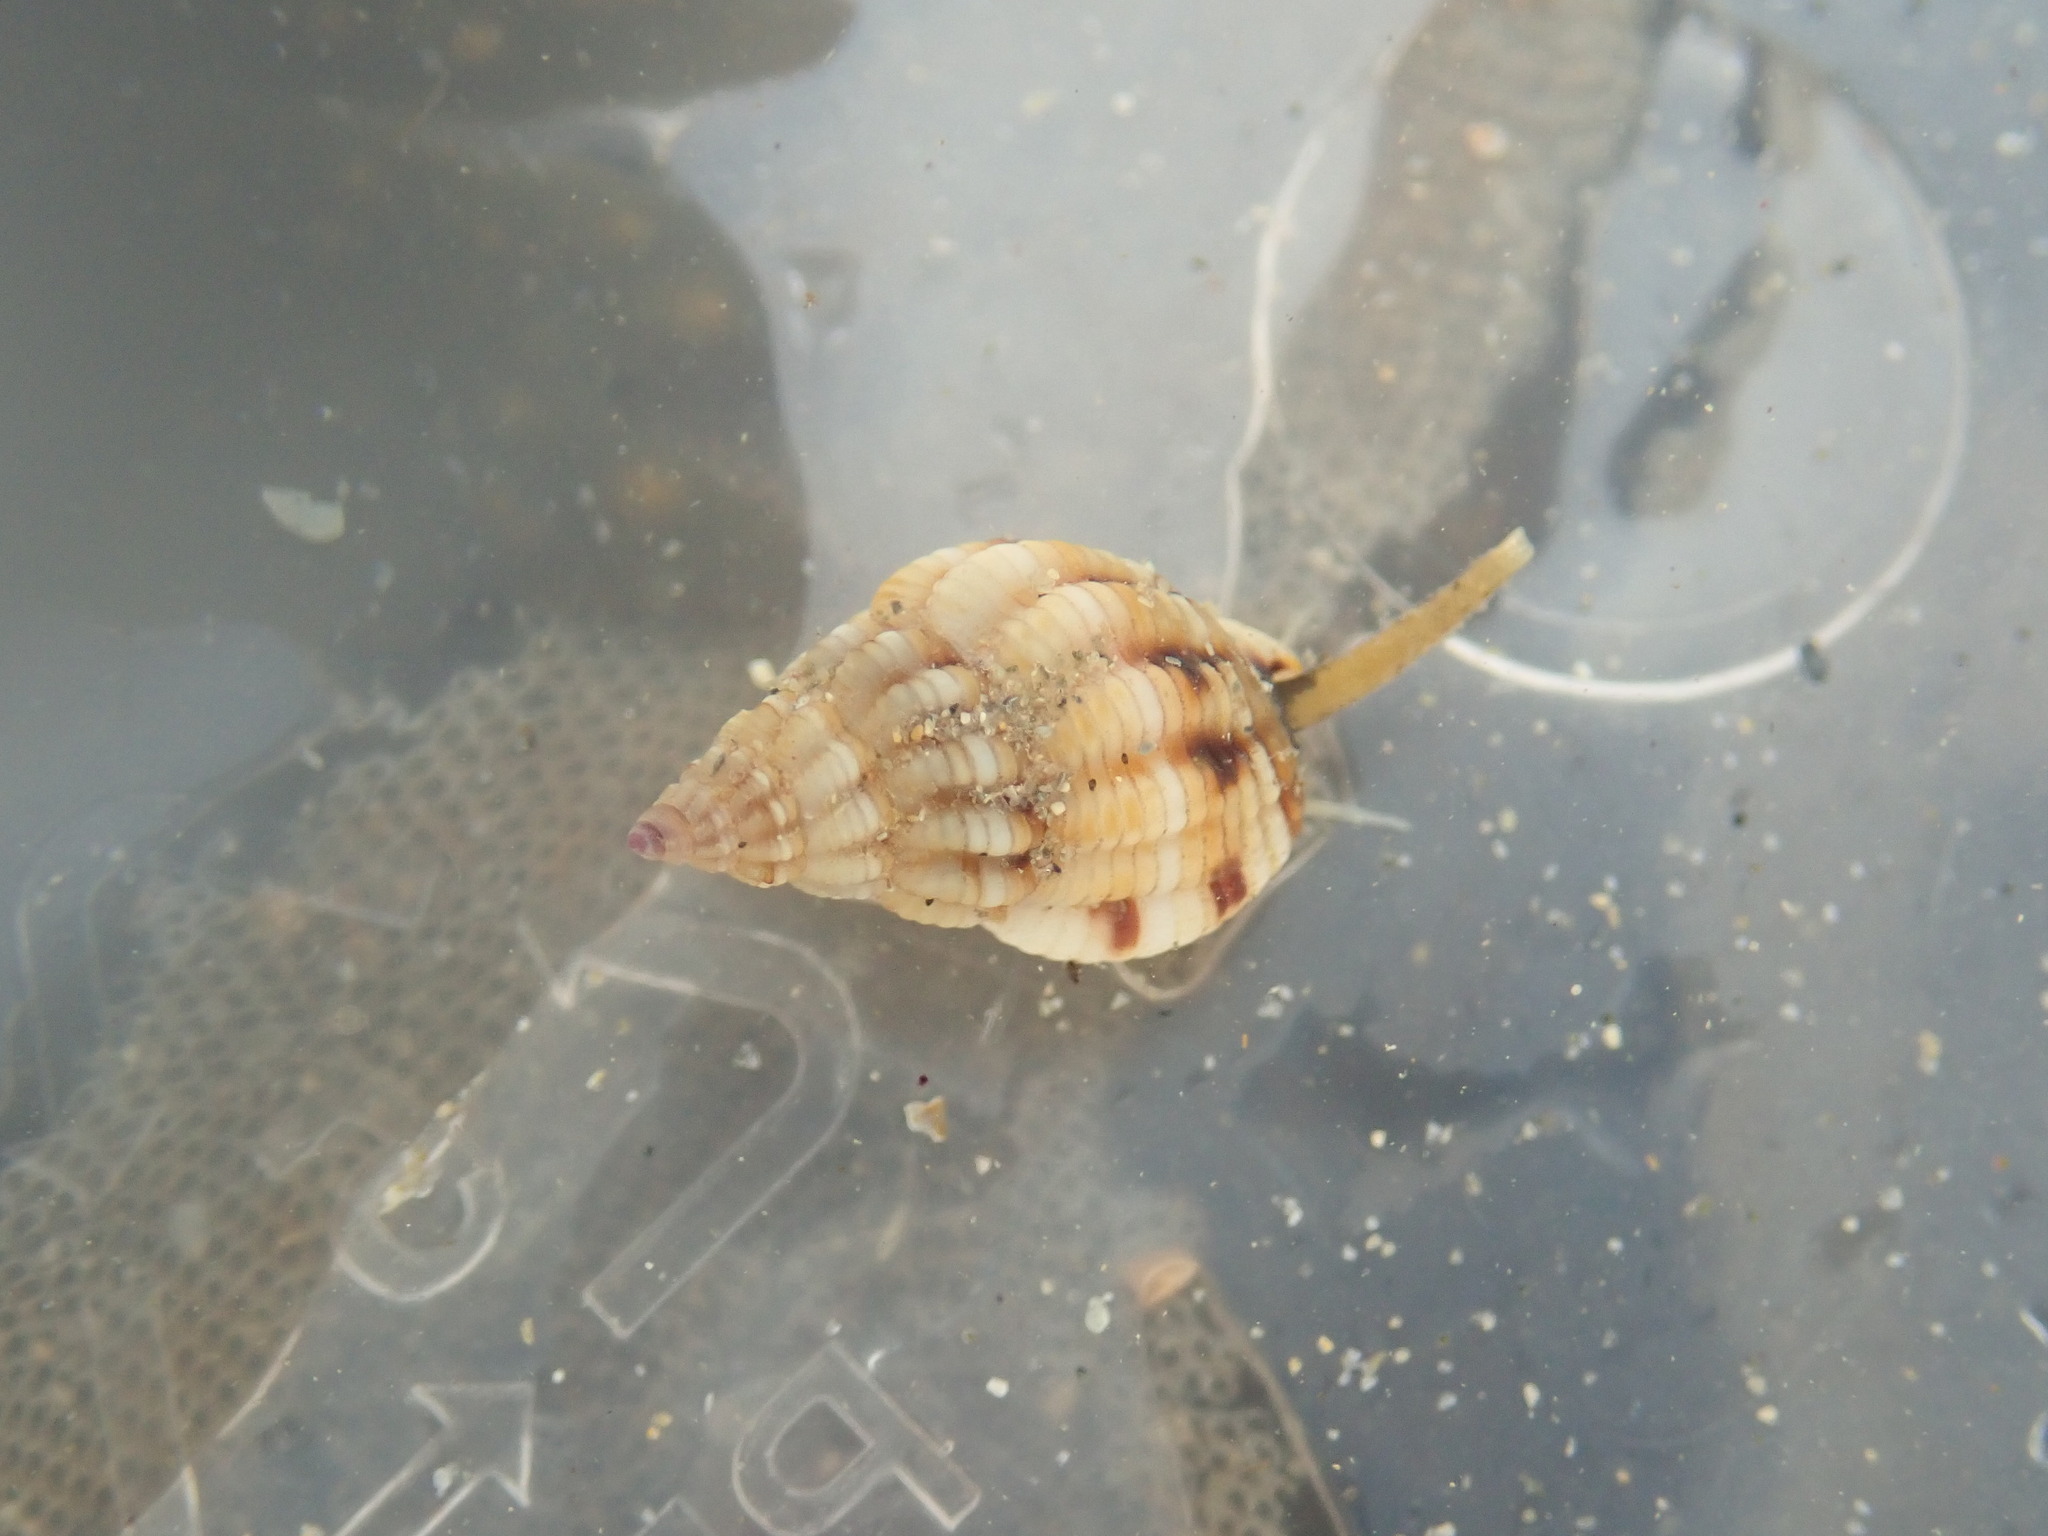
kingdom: Animalia
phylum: Mollusca
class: Gastropoda
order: Neogastropoda
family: Nassariidae
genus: Tritia
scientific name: Tritia incrassata
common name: Thick-lipped dog whelk
